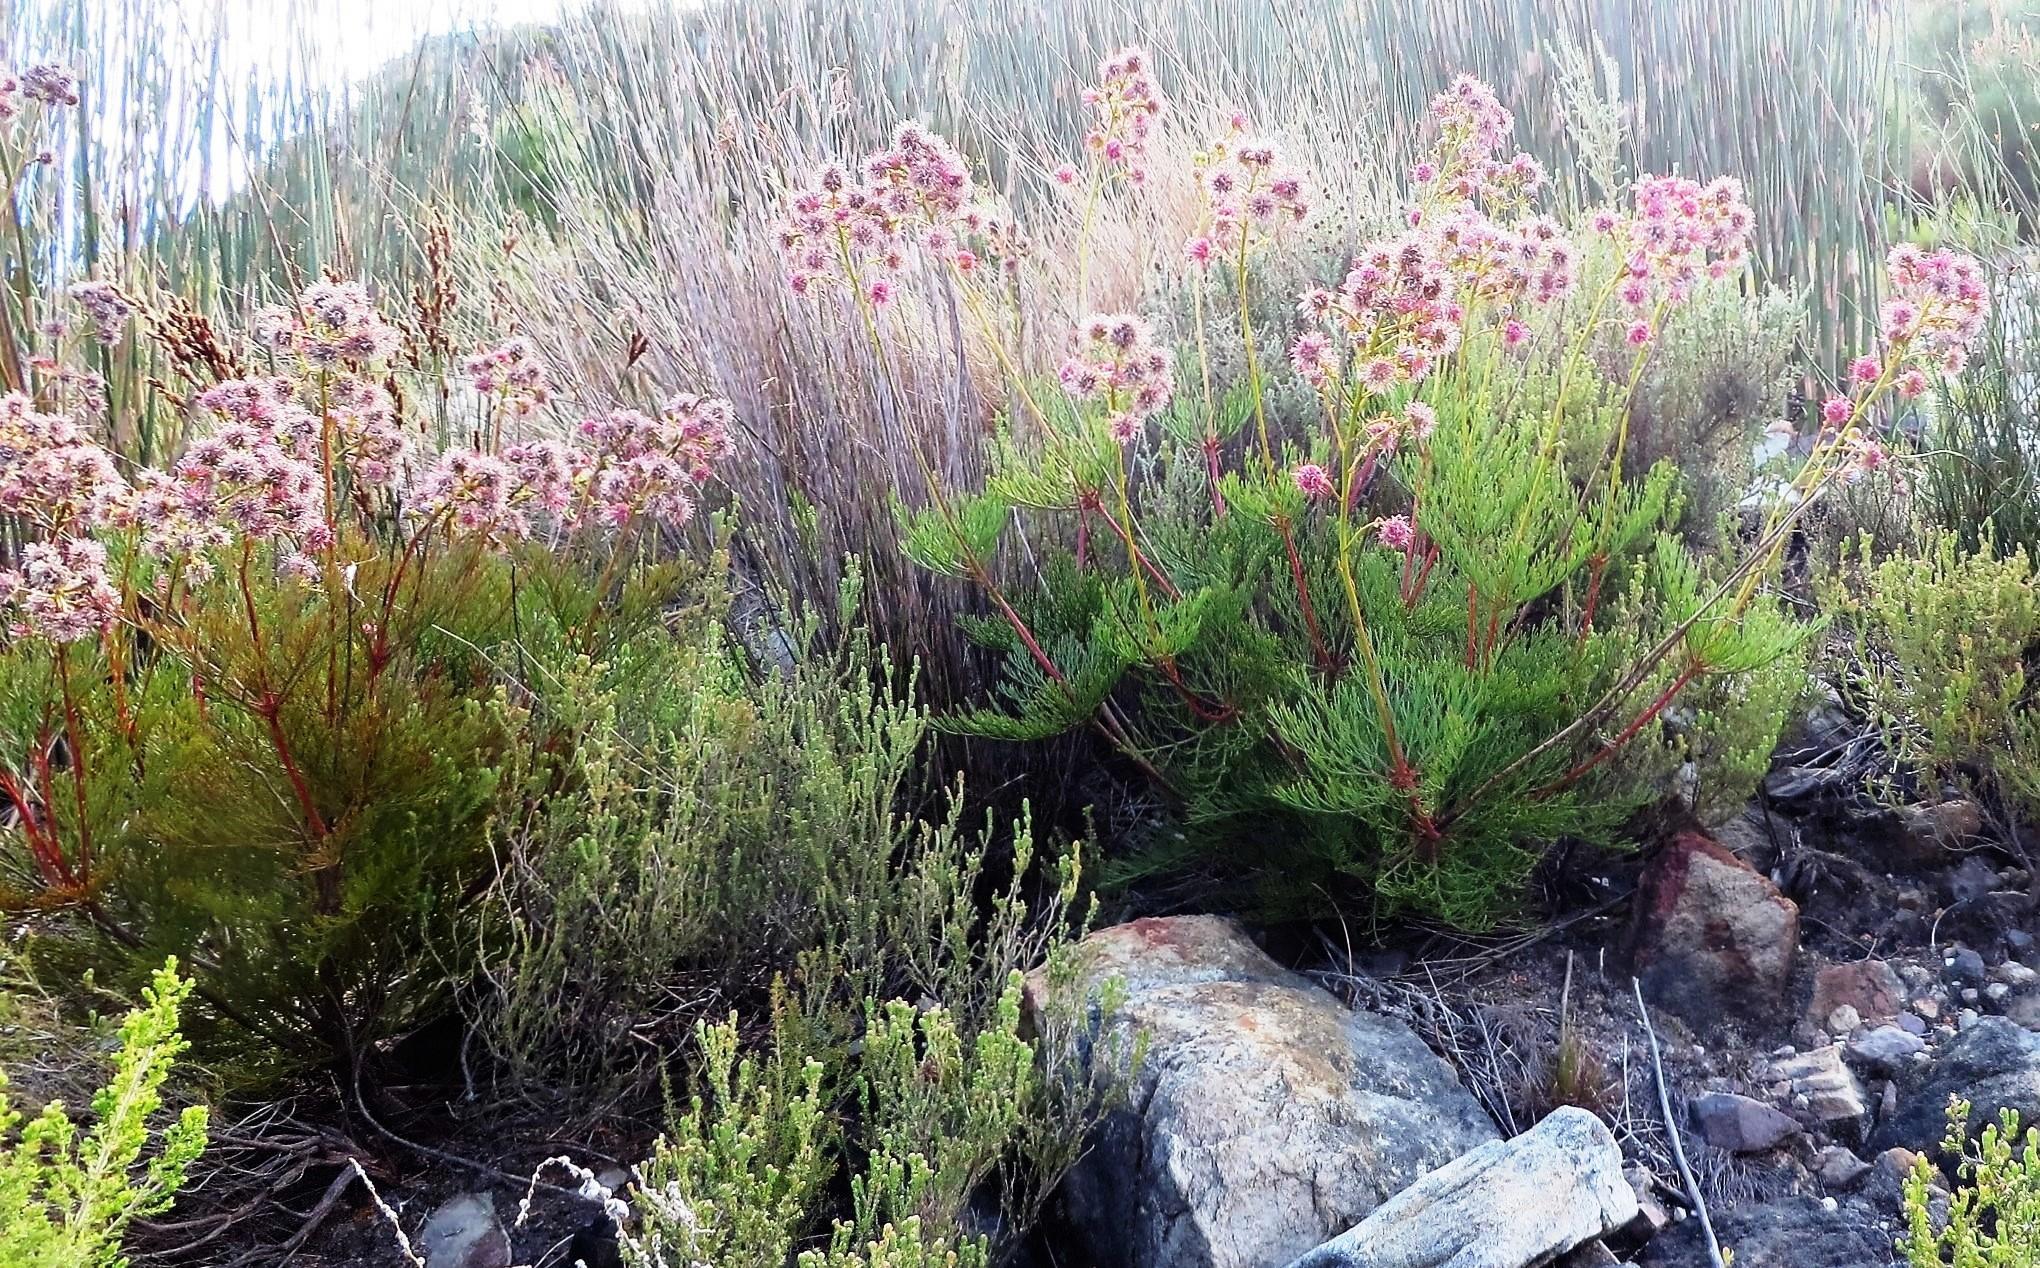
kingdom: Plantae
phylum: Tracheophyta
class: Magnoliopsida
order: Proteales
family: Proteaceae
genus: Serruria
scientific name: Serruria elongata
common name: Long-stalk spiderhead
